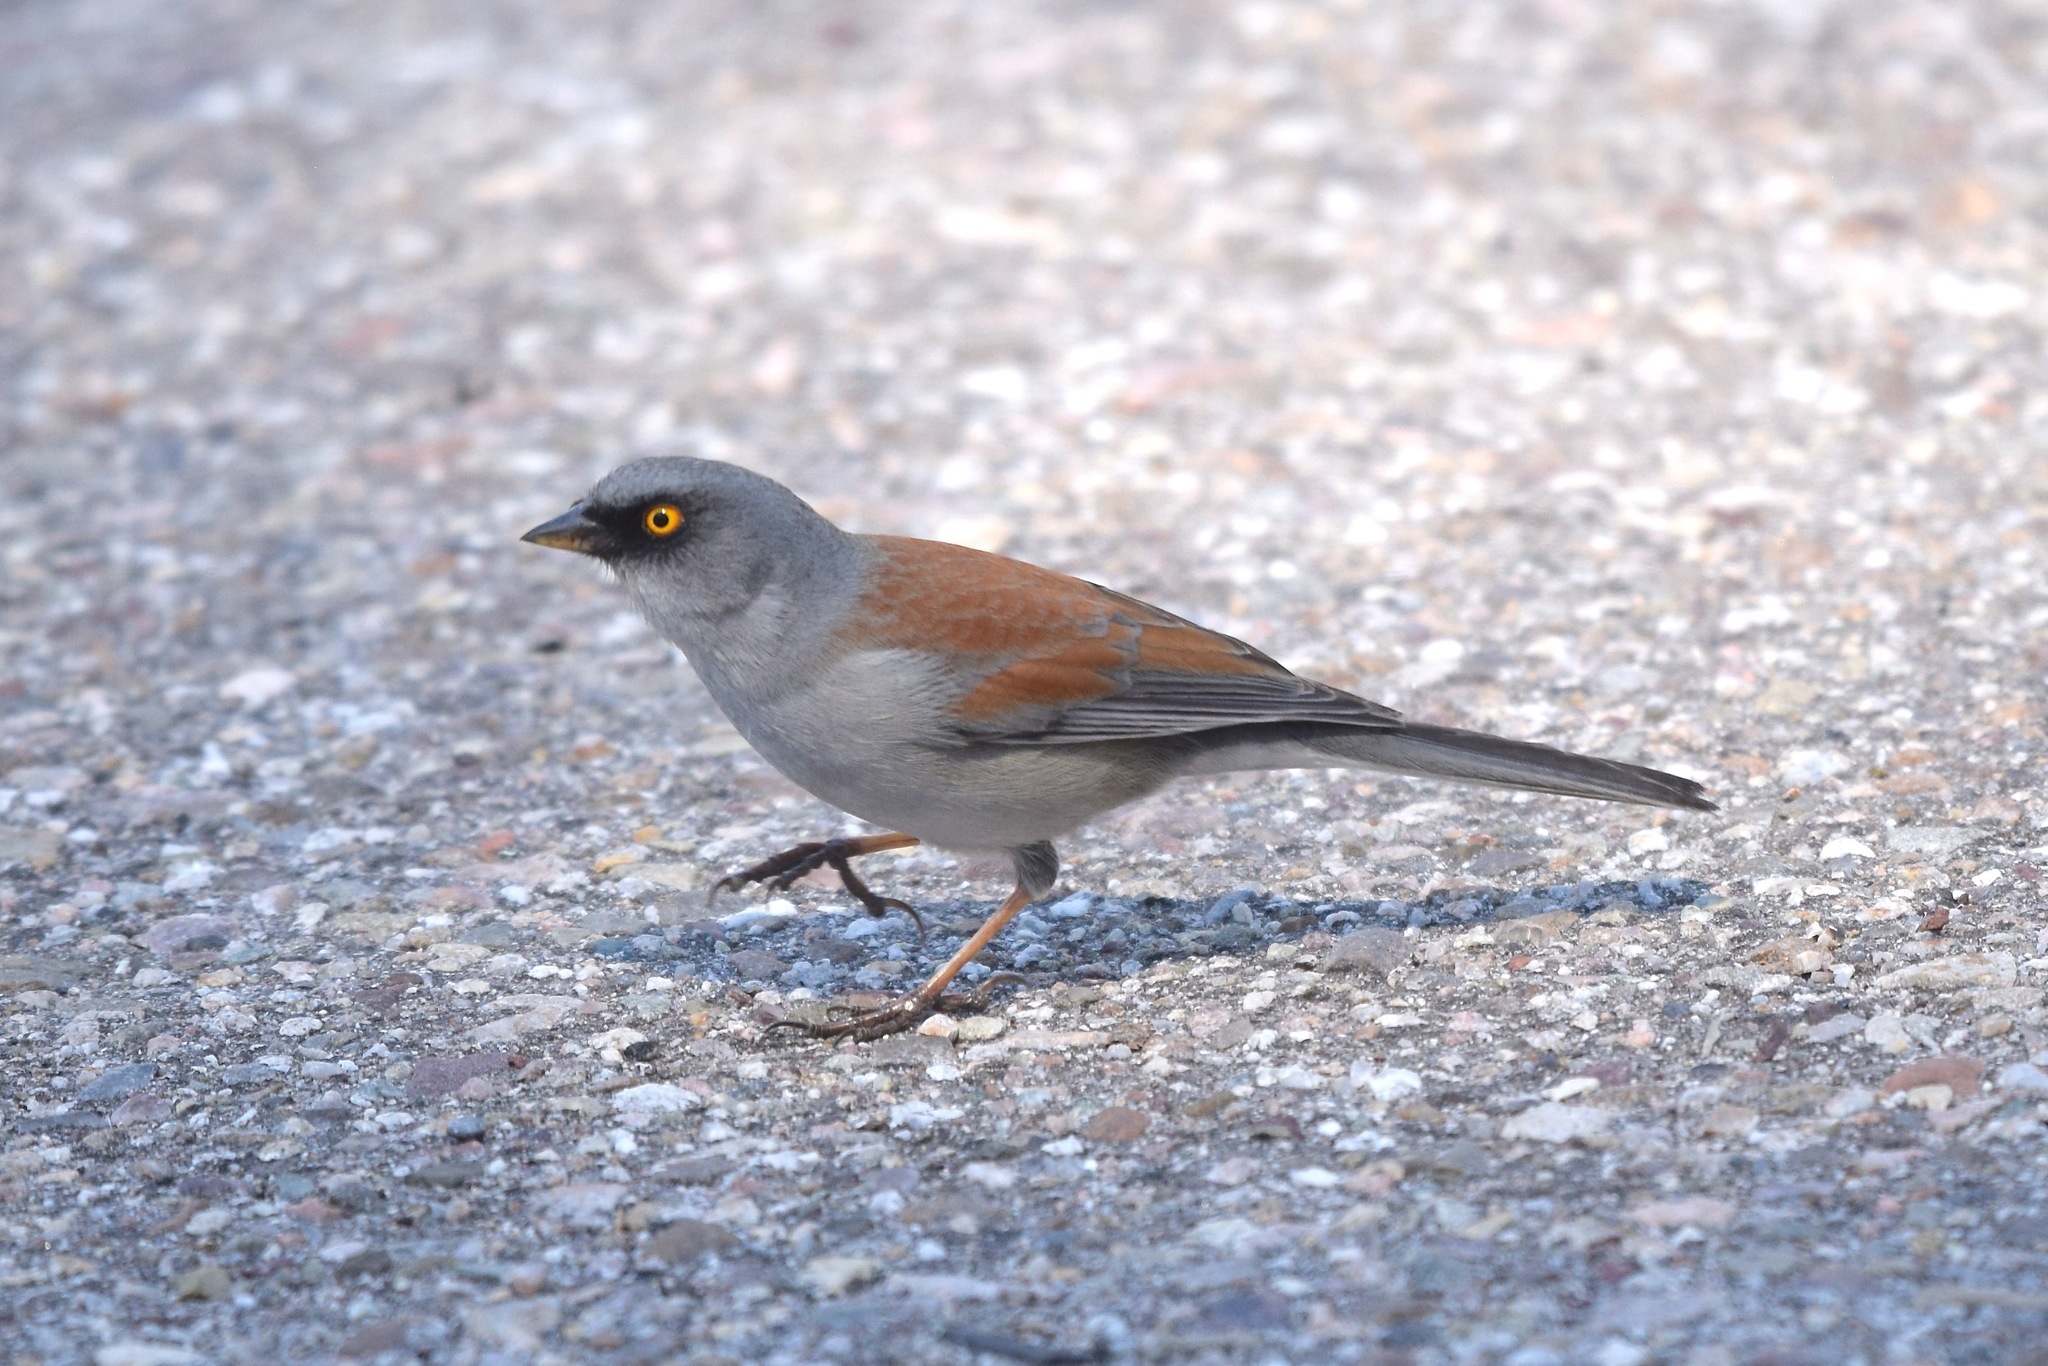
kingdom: Animalia
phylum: Chordata
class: Aves
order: Passeriformes
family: Passerellidae
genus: Junco
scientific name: Junco phaeonotus
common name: Yellow-eyed junco
